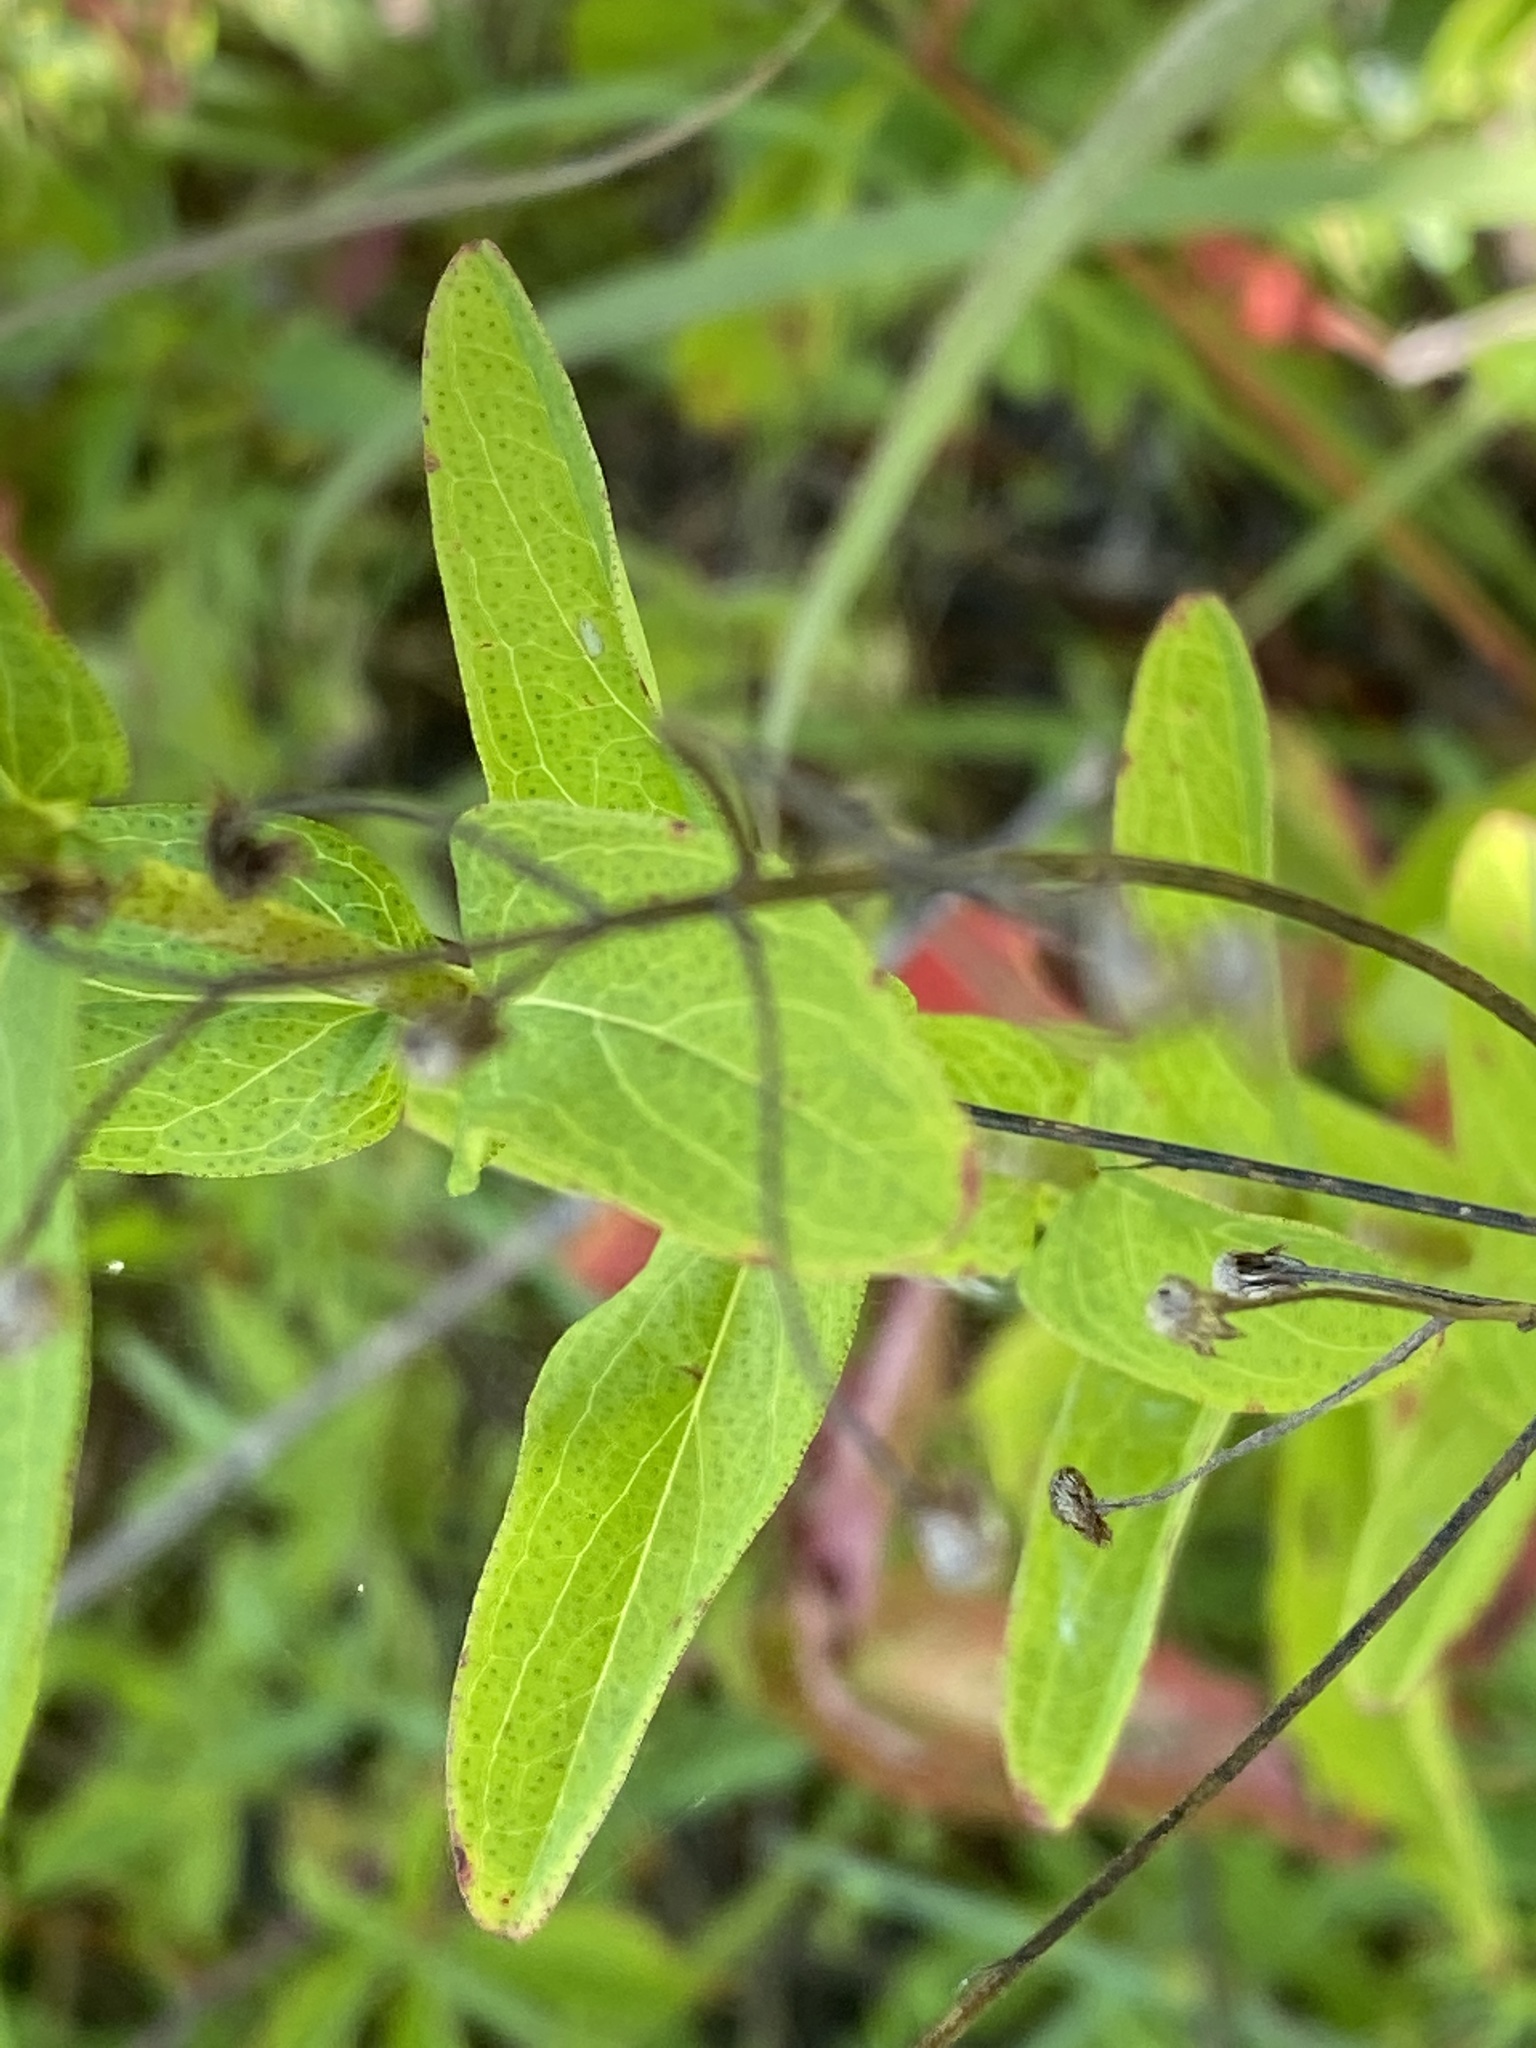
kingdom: Plantae
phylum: Tracheophyta
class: Magnoliopsida
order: Malpighiales
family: Hypericaceae
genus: Hypericum
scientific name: Hypericum punctatum
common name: Spotted st. john's-wort
